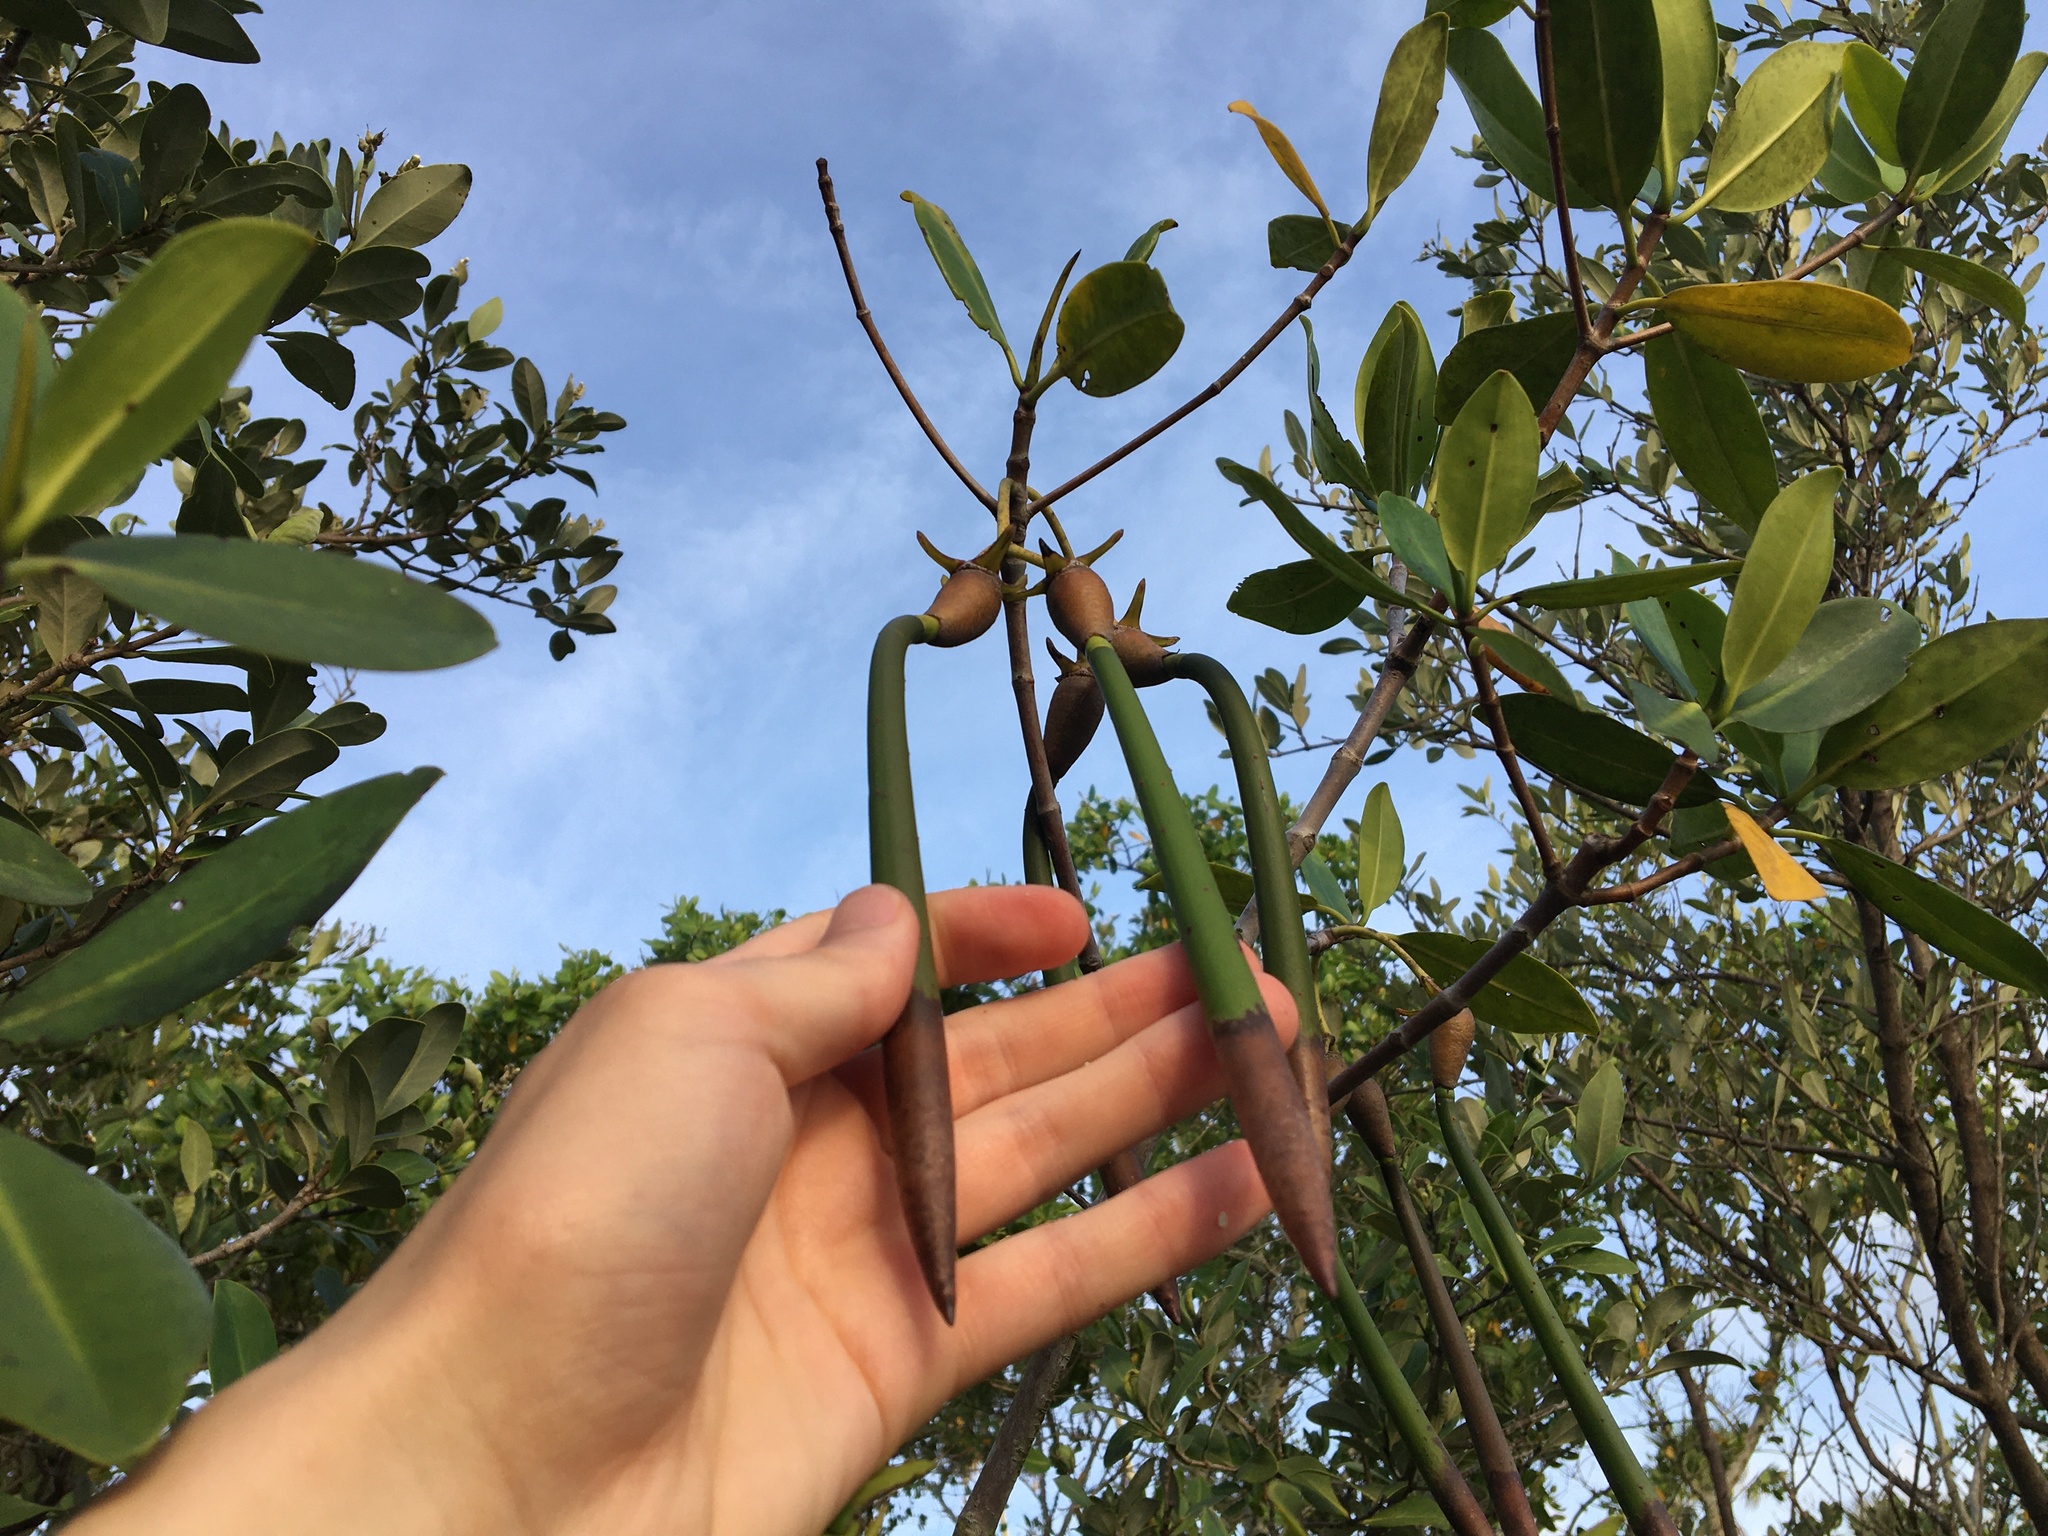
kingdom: Plantae
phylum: Tracheophyta
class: Magnoliopsida
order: Malpighiales
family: Rhizophoraceae
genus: Rhizophora
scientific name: Rhizophora mangle
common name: Red mangrove
